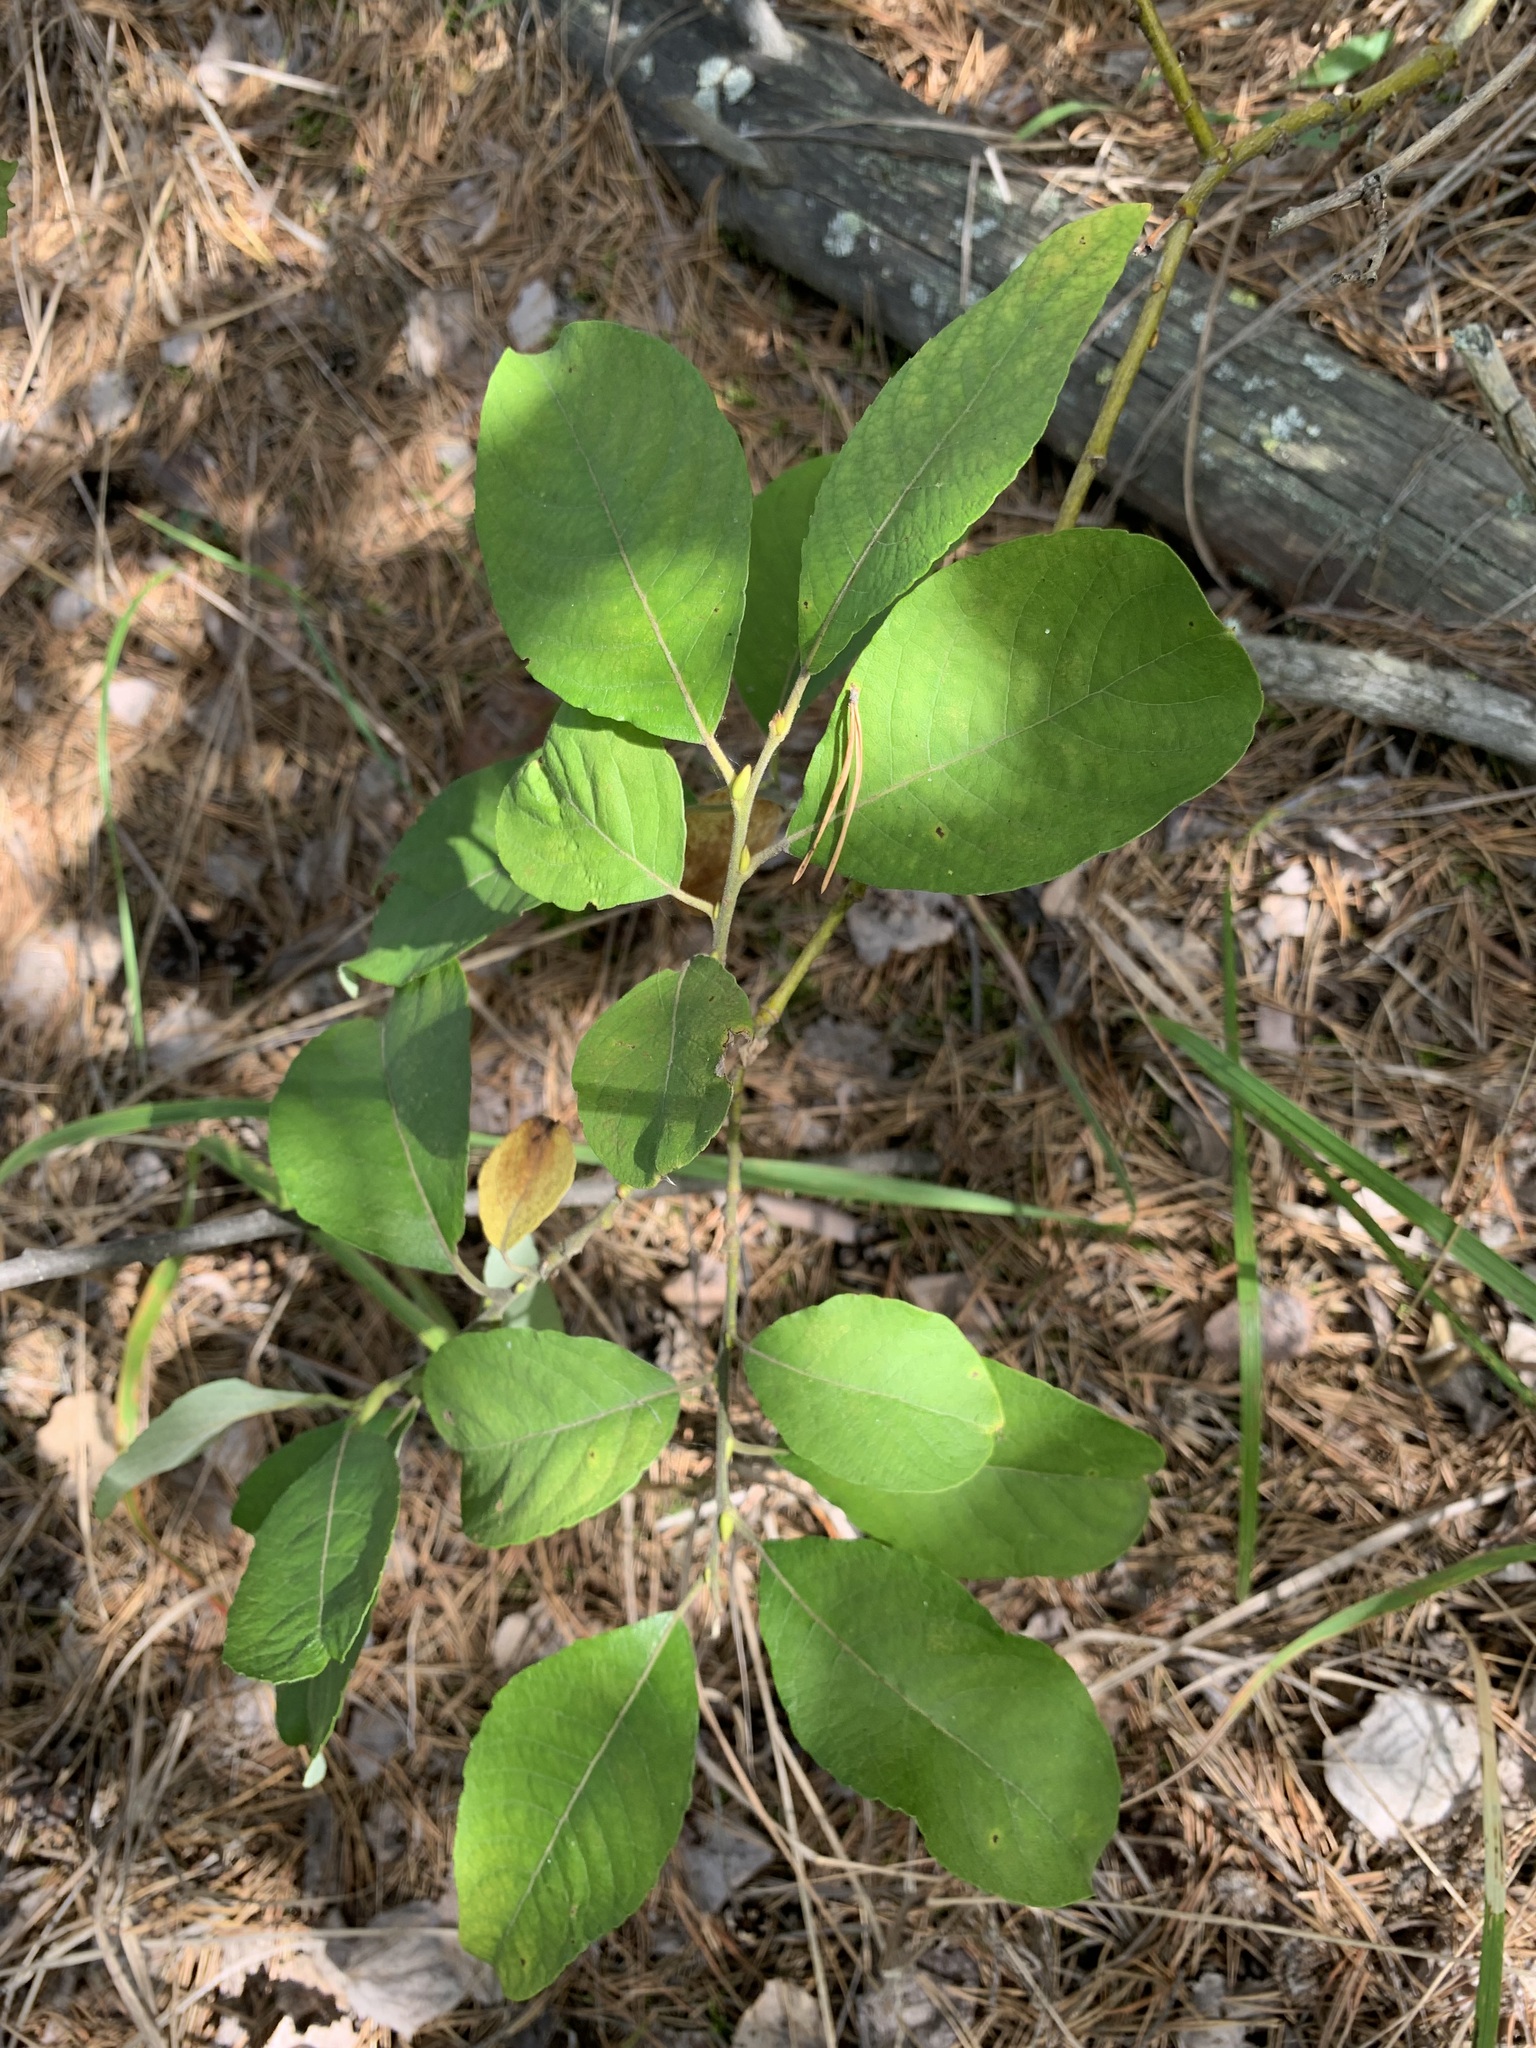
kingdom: Plantae
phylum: Tracheophyta
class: Magnoliopsida
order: Malpighiales
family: Salicaceae
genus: Salix
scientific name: Salix caprea
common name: Goat willow
